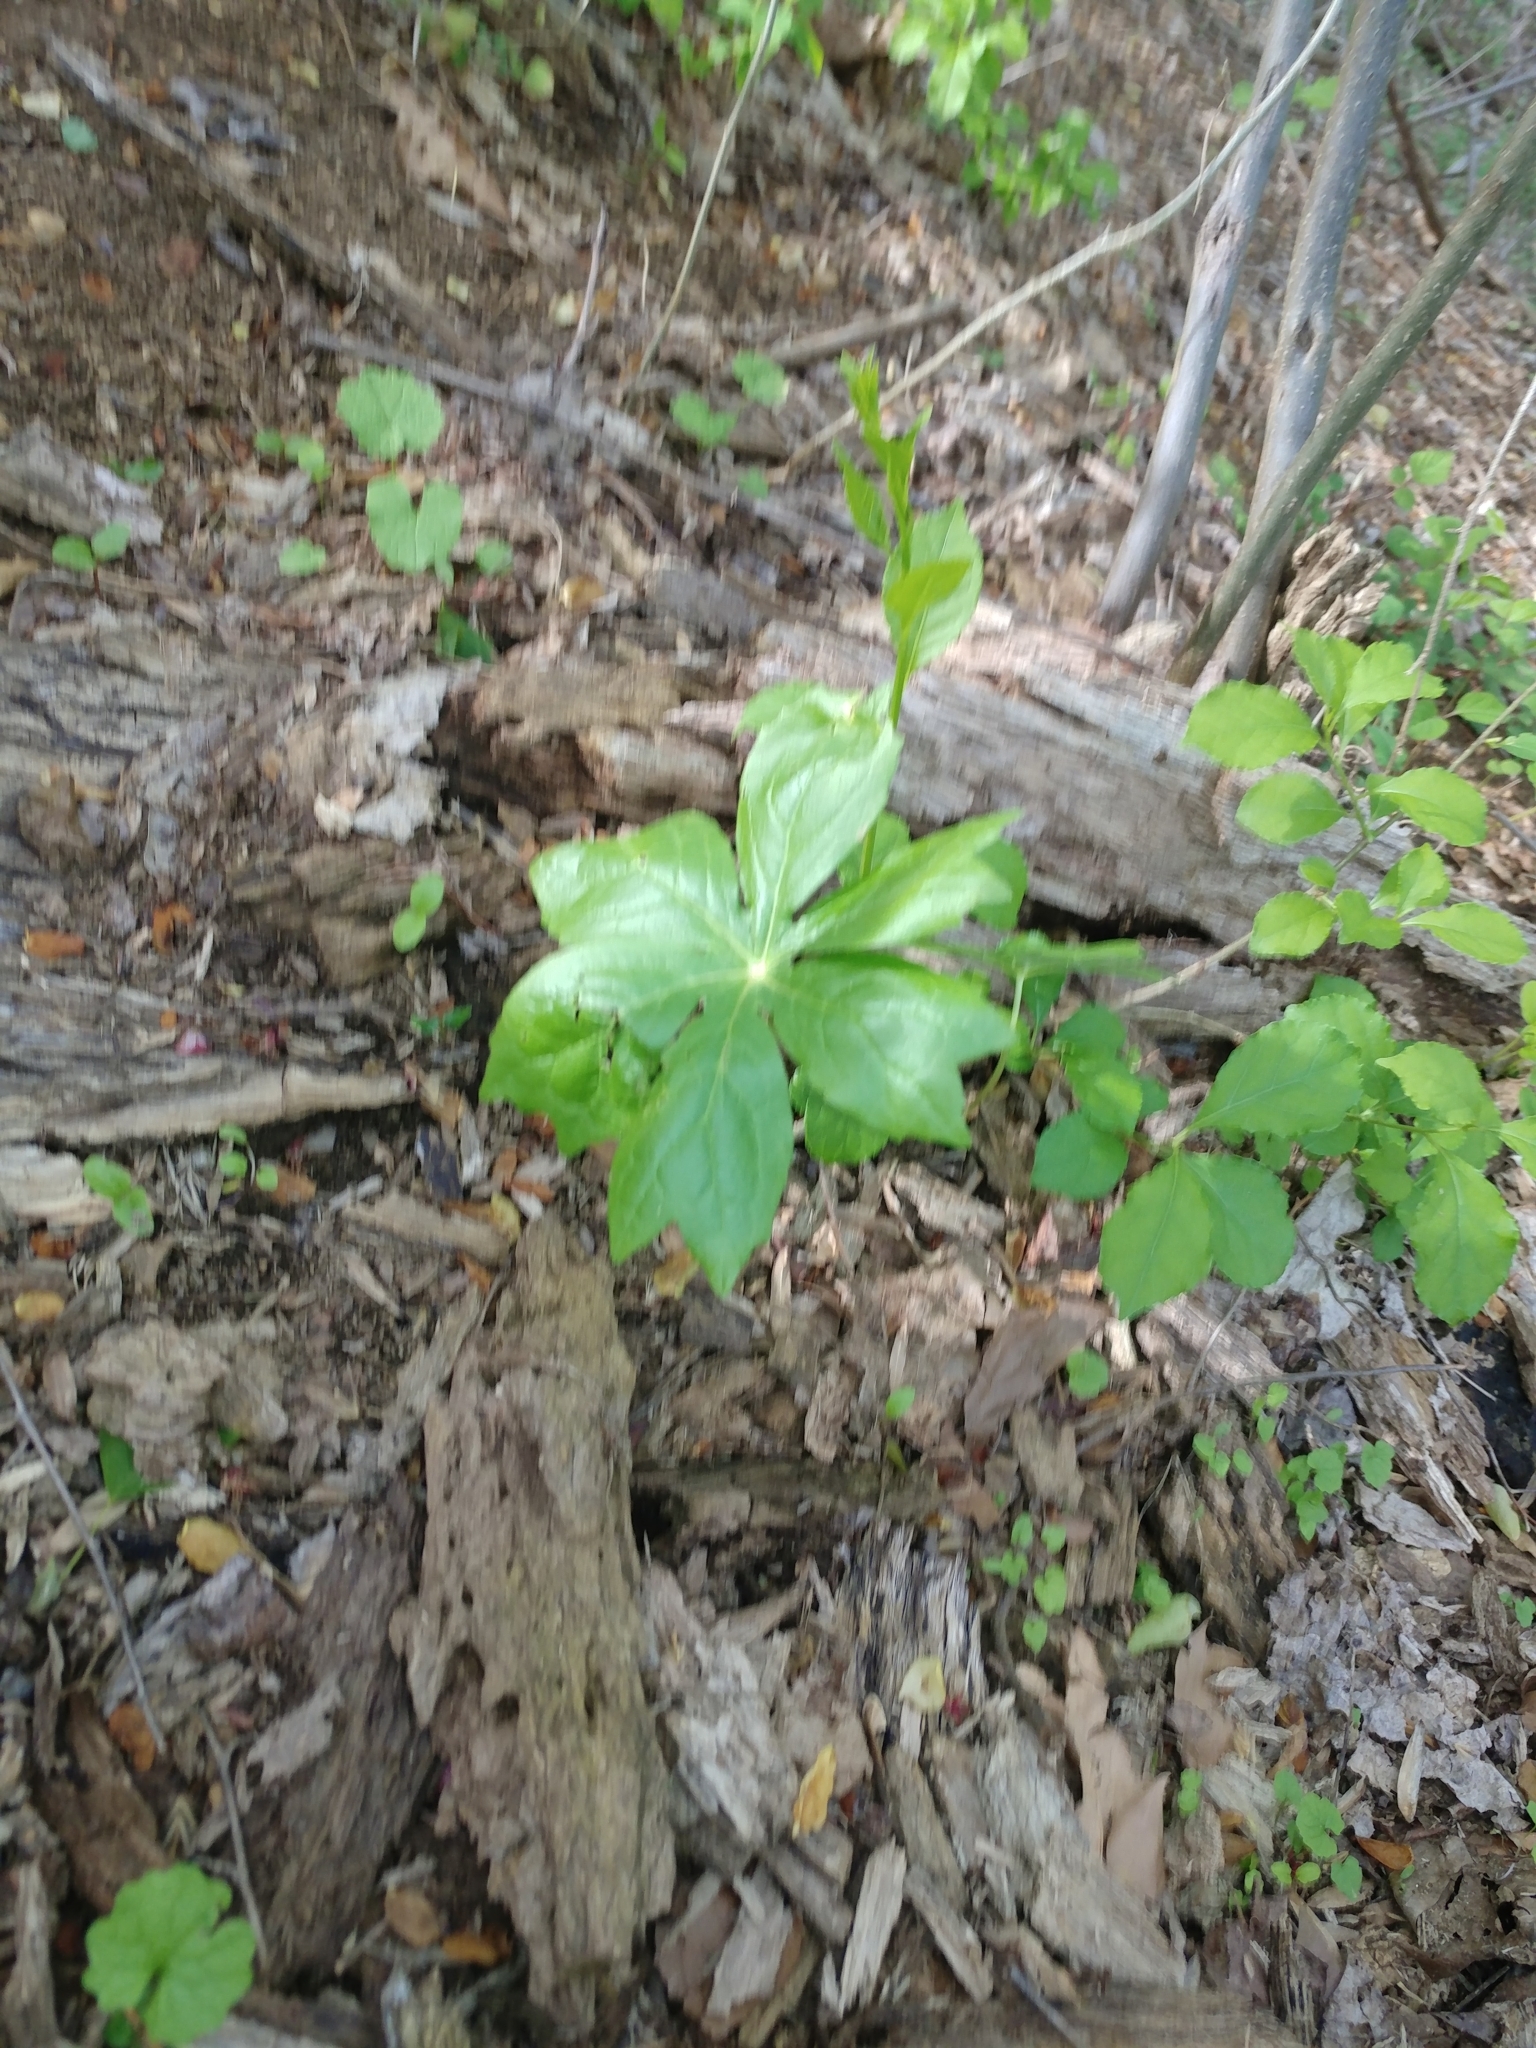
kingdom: Plantae
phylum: Tracheophyta
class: Magnoliopsida
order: Ranunculales
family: Berberidaceae
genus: Podophyllum
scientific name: Podophyllum peltatum
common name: Wild mandrake
